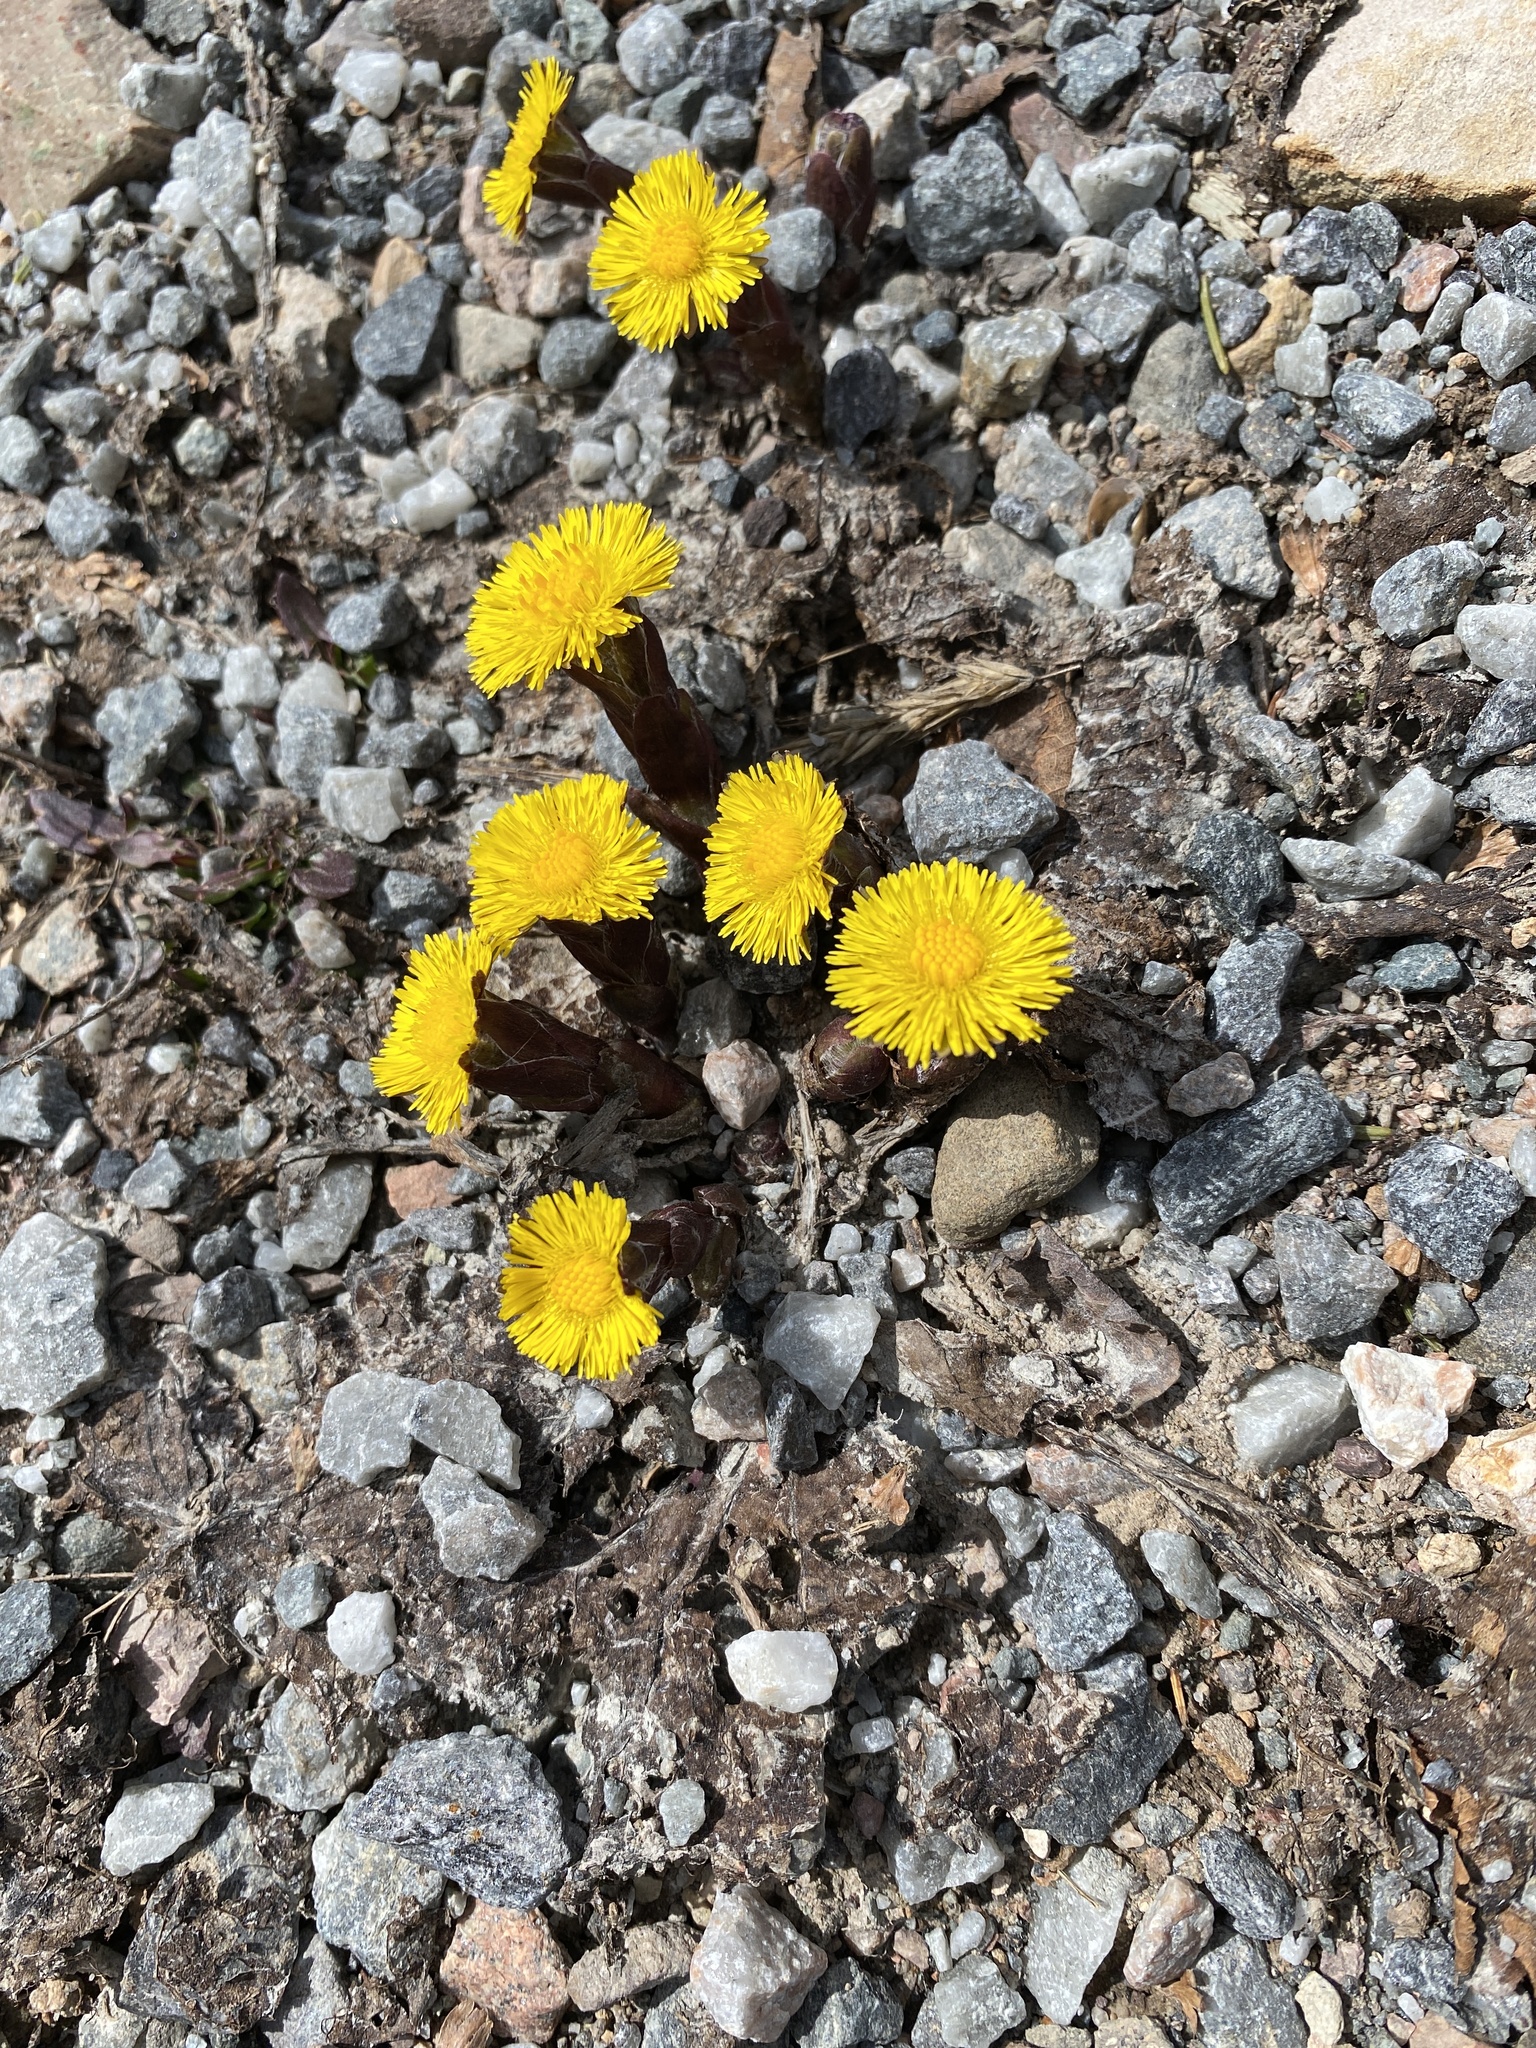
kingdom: Plantae
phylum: Tracheophyta
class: Magnoliopsida
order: Asterales
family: Asteraceae
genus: Tussilago
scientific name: Tussilago farfara
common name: Coltsfoot
